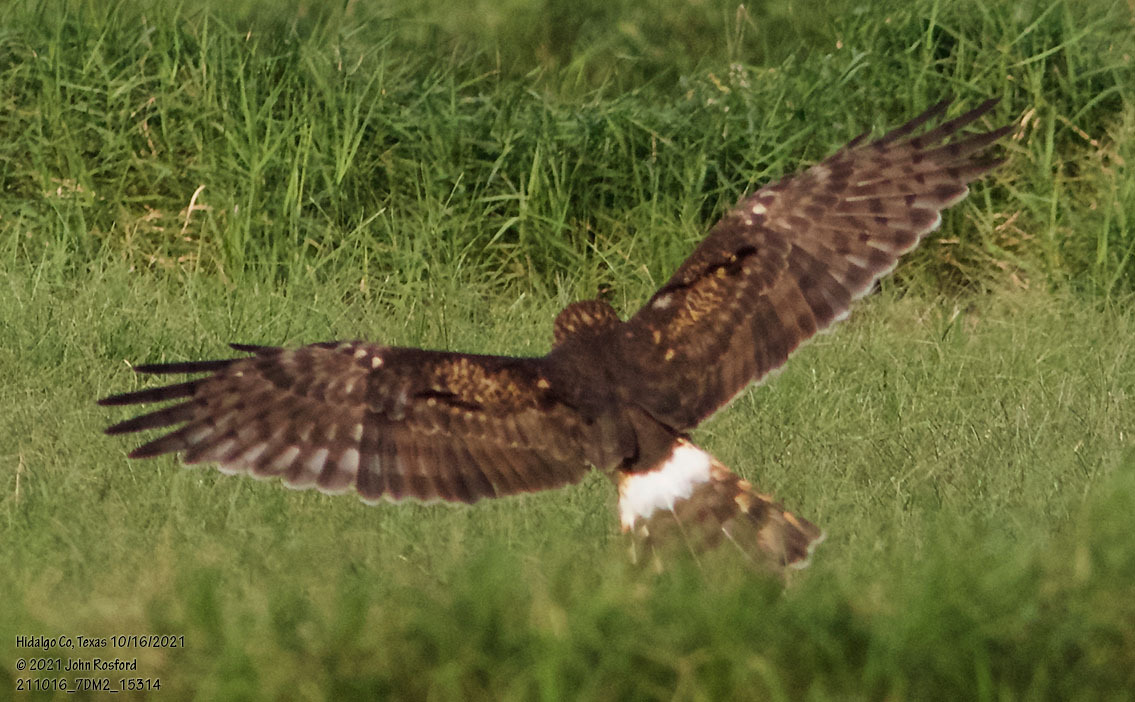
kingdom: Animalia
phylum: Chordata
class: Aves
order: Accipitriformes
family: Accipitridae
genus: Circus
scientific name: Circus cyaneus
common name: Hen harrier
